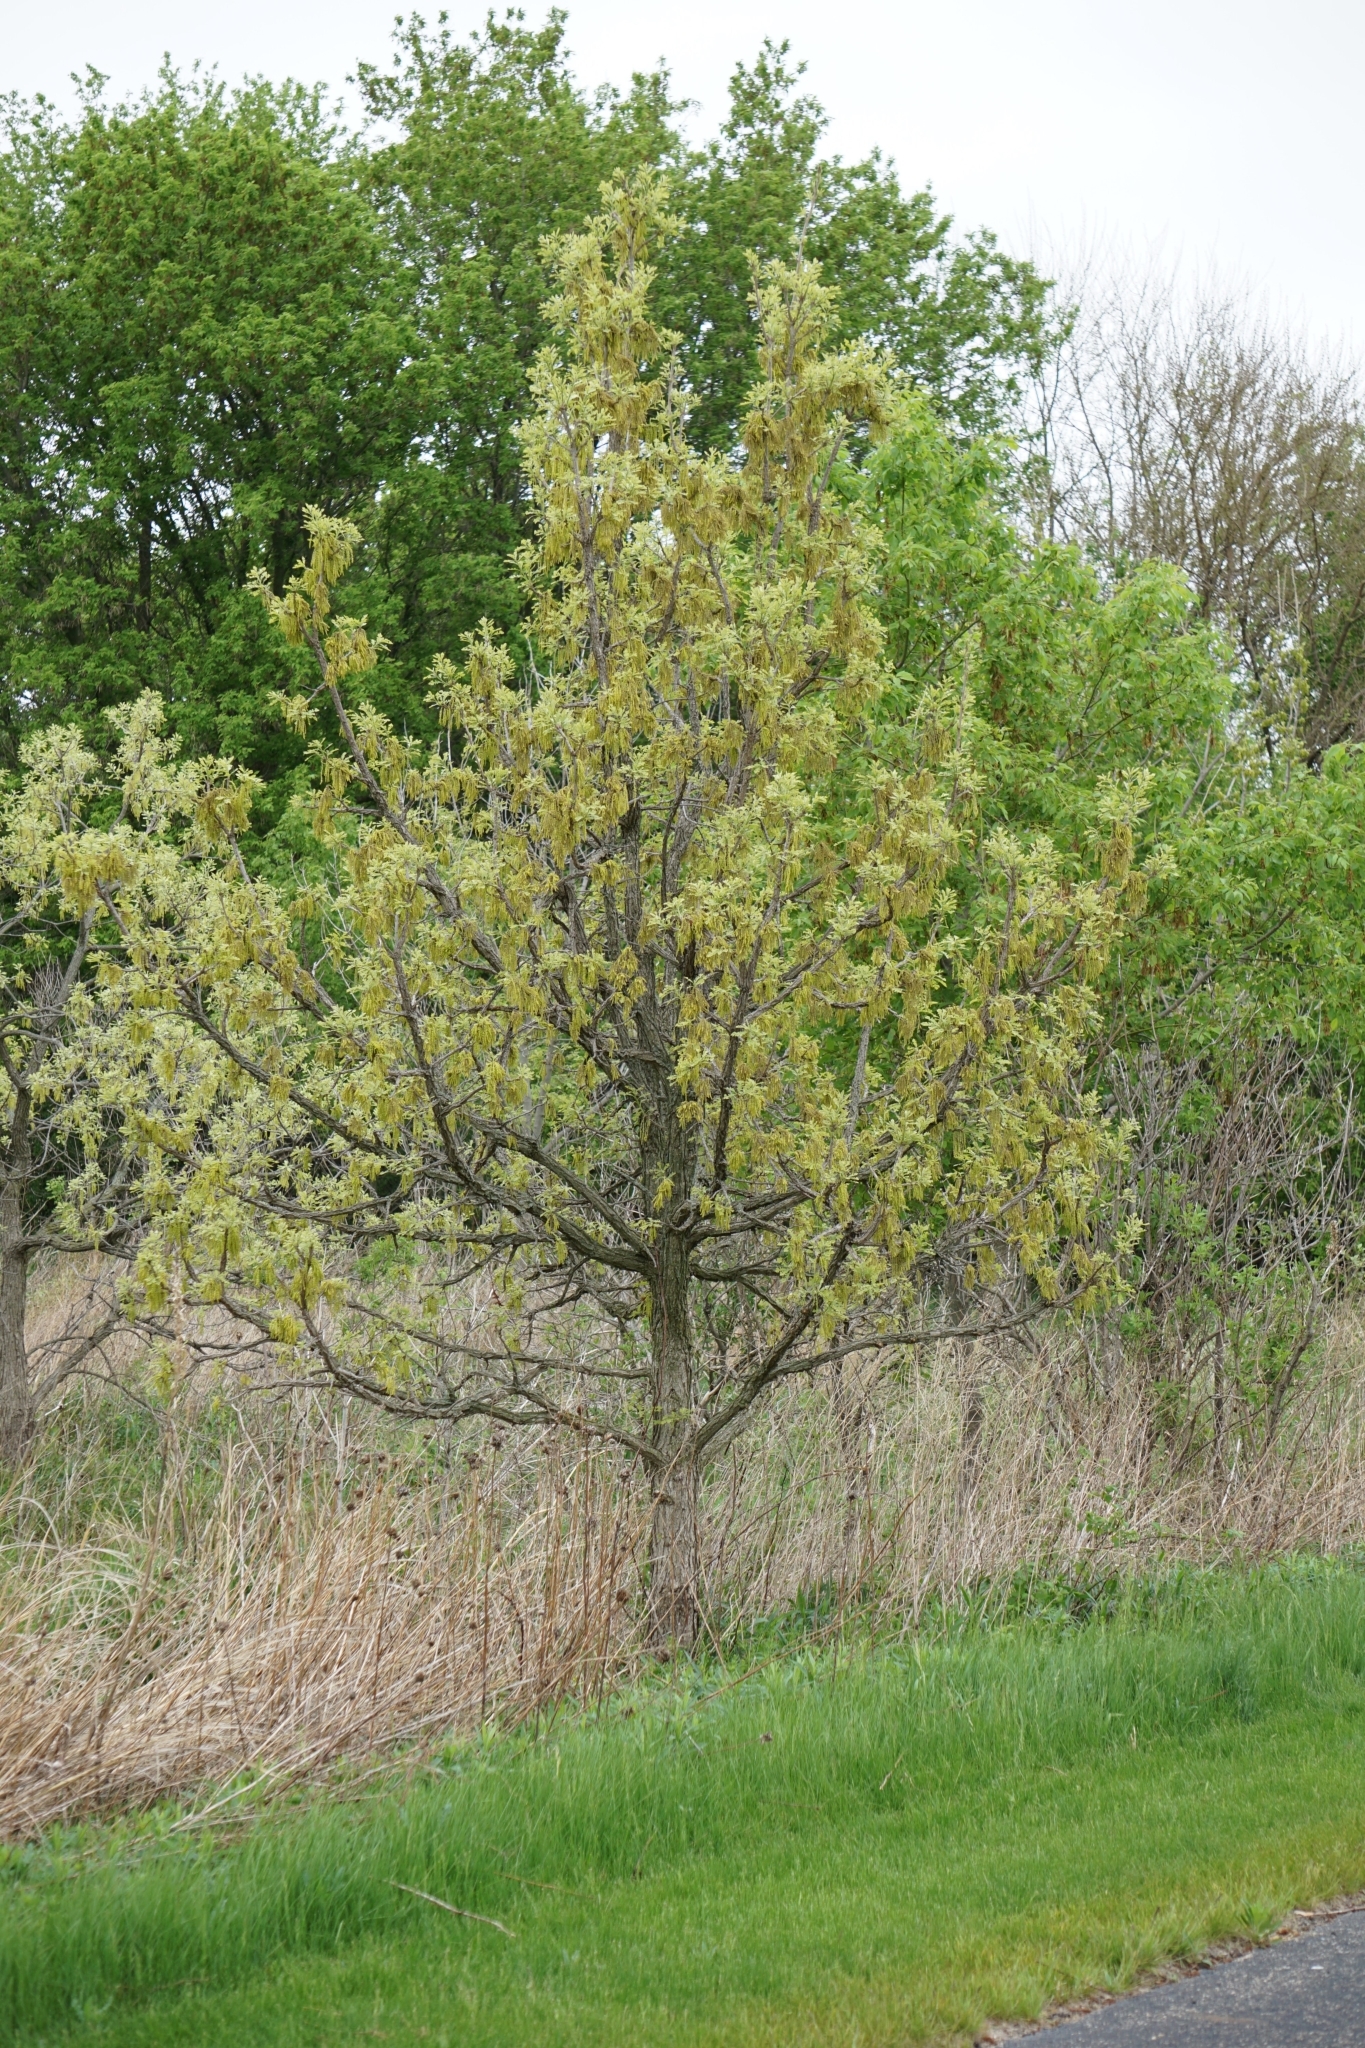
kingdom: Plantae
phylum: Tracheophyta
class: Magnoliopsida
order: Fagales
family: Fagaceae
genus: Quercus
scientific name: Quercus macrocarpa
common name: Bur oak
